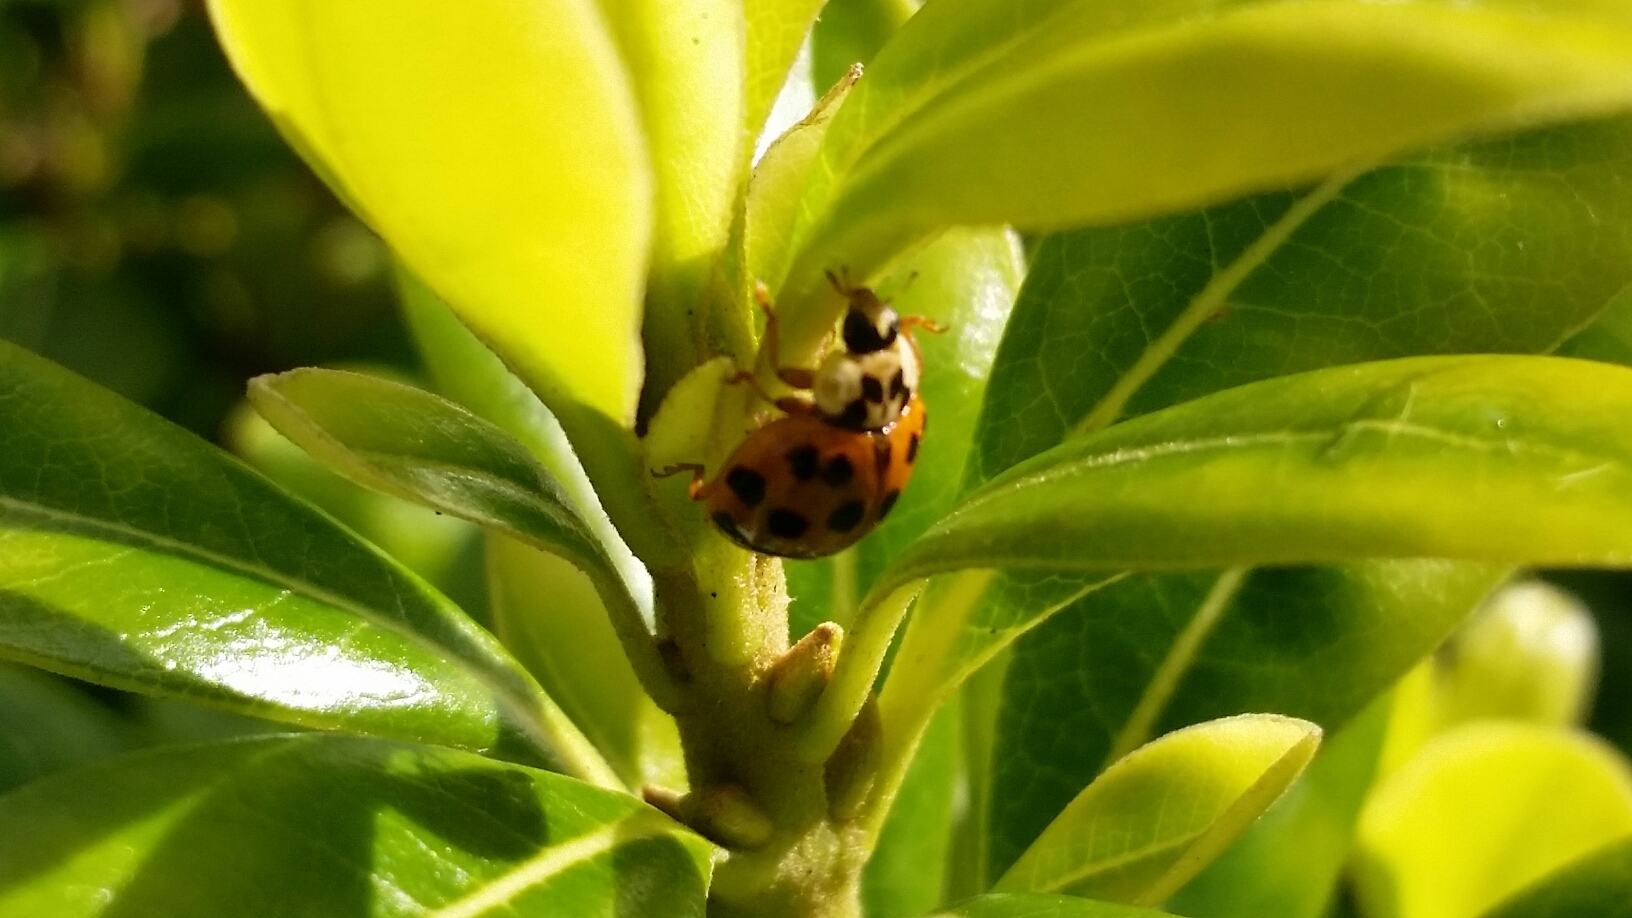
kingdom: Animalia
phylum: Arthropoda
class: Insecta
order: Coleoptera
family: Coccinellidae
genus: Harmonia
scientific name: Harmonia axyridis
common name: Harlequin ladybird
